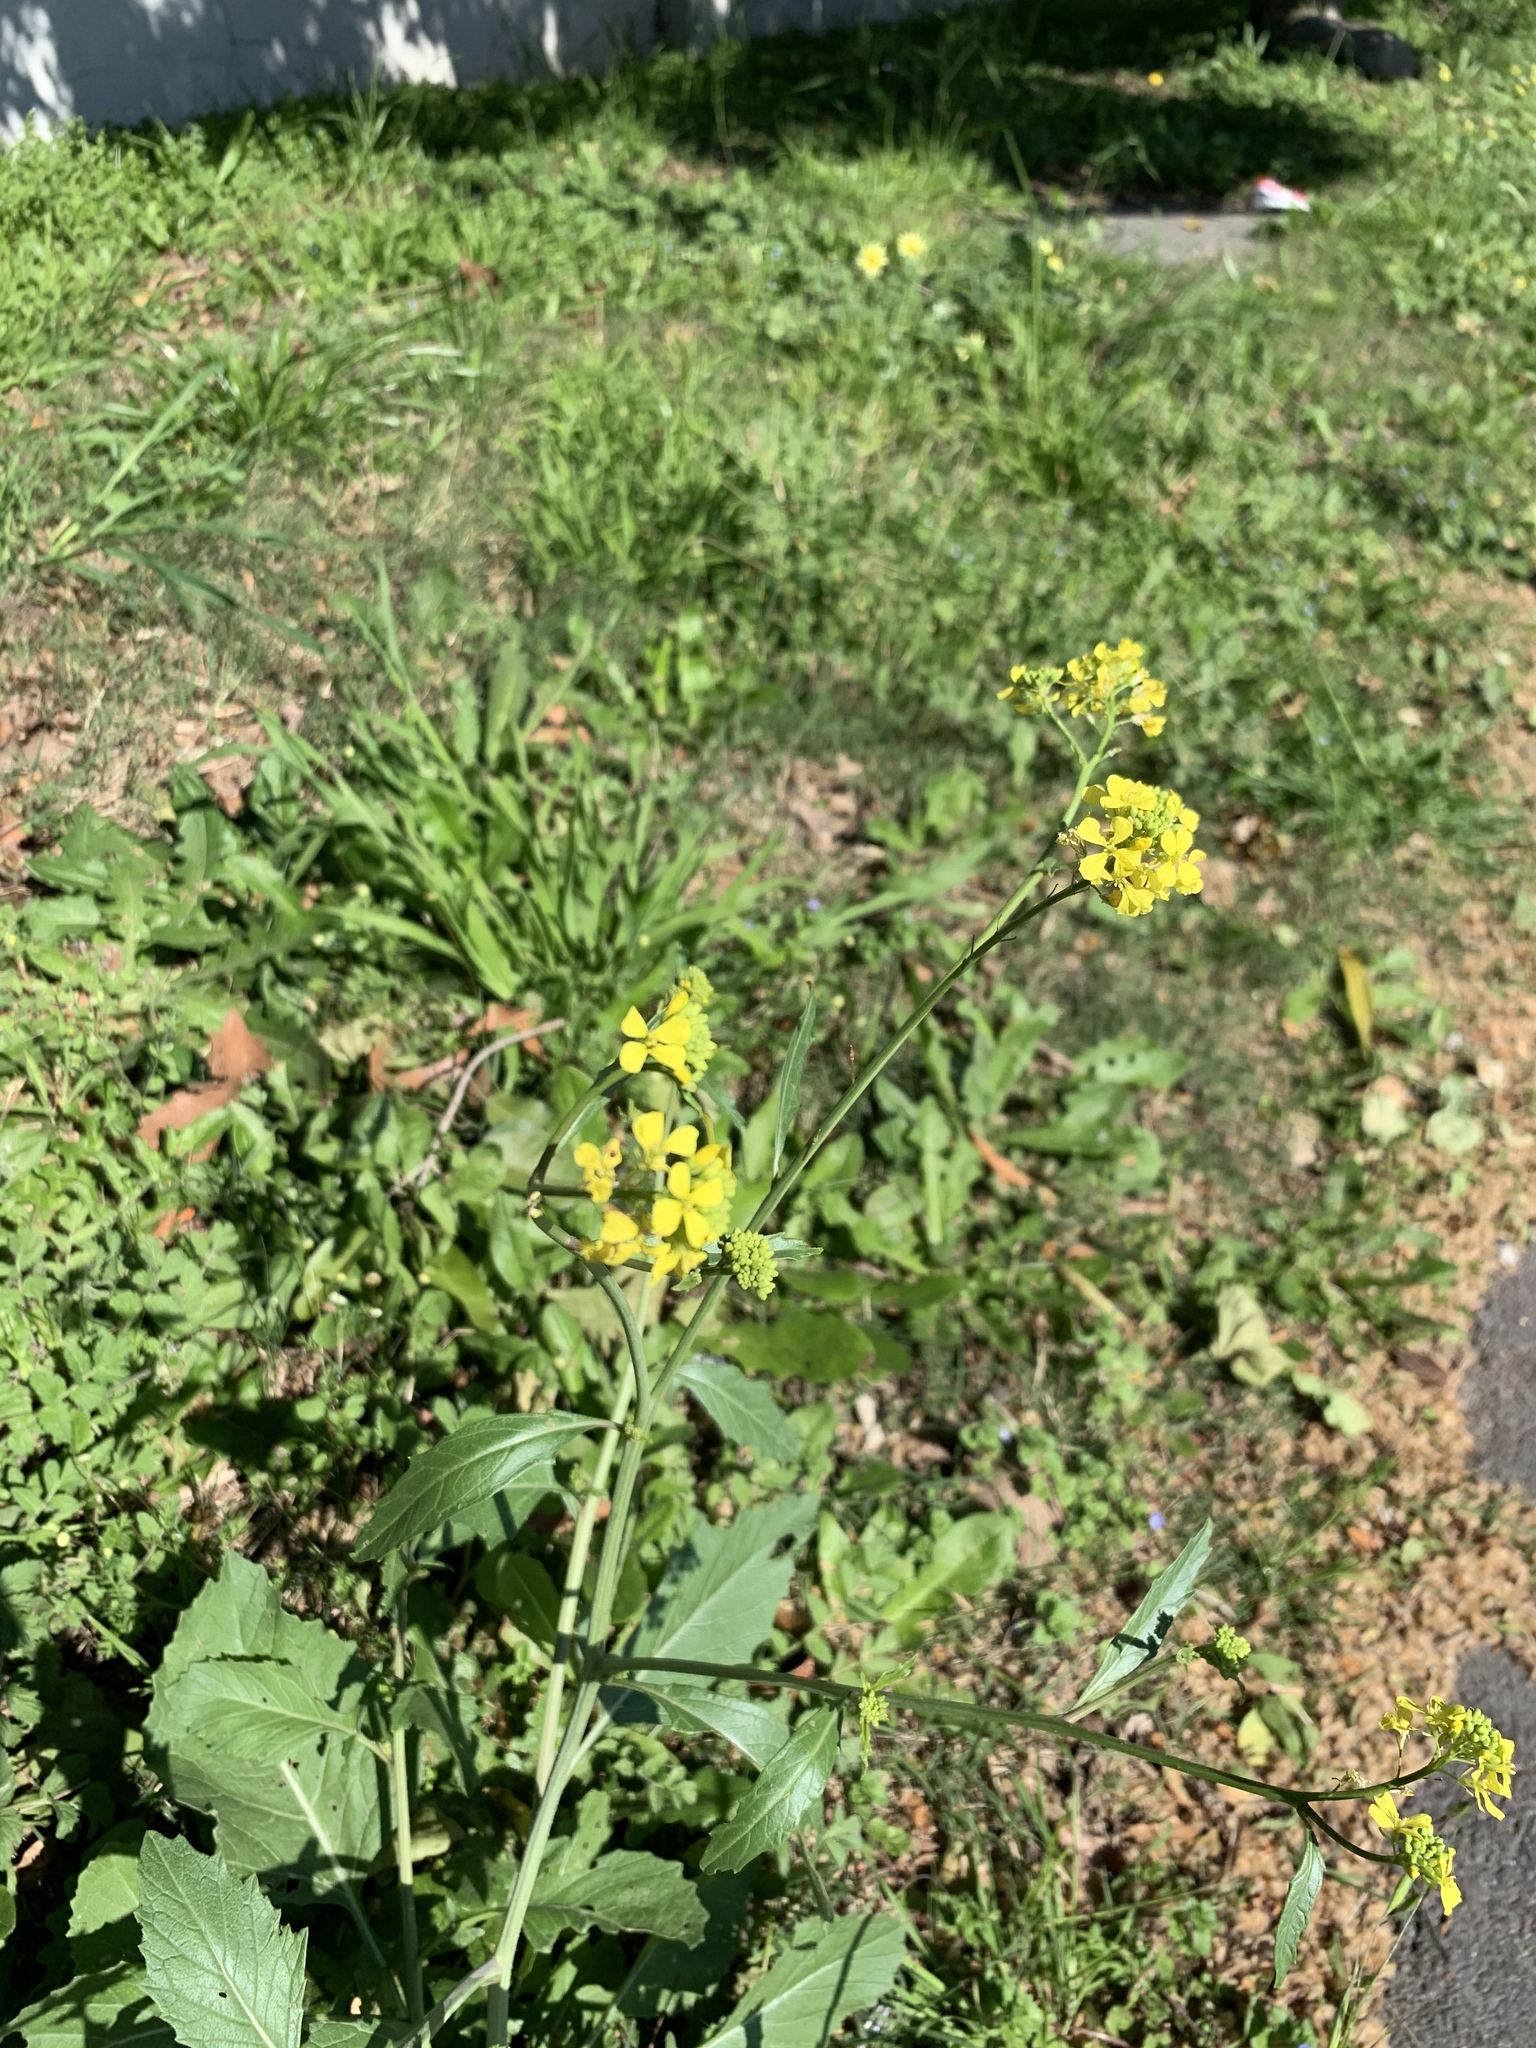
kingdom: Plantae
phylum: Tracheophyta
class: Magnoliopsida
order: Brassicales
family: Brassicaceae
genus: Rapistrum
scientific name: Rapistrum rugosum
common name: Annual bastardcabbage
